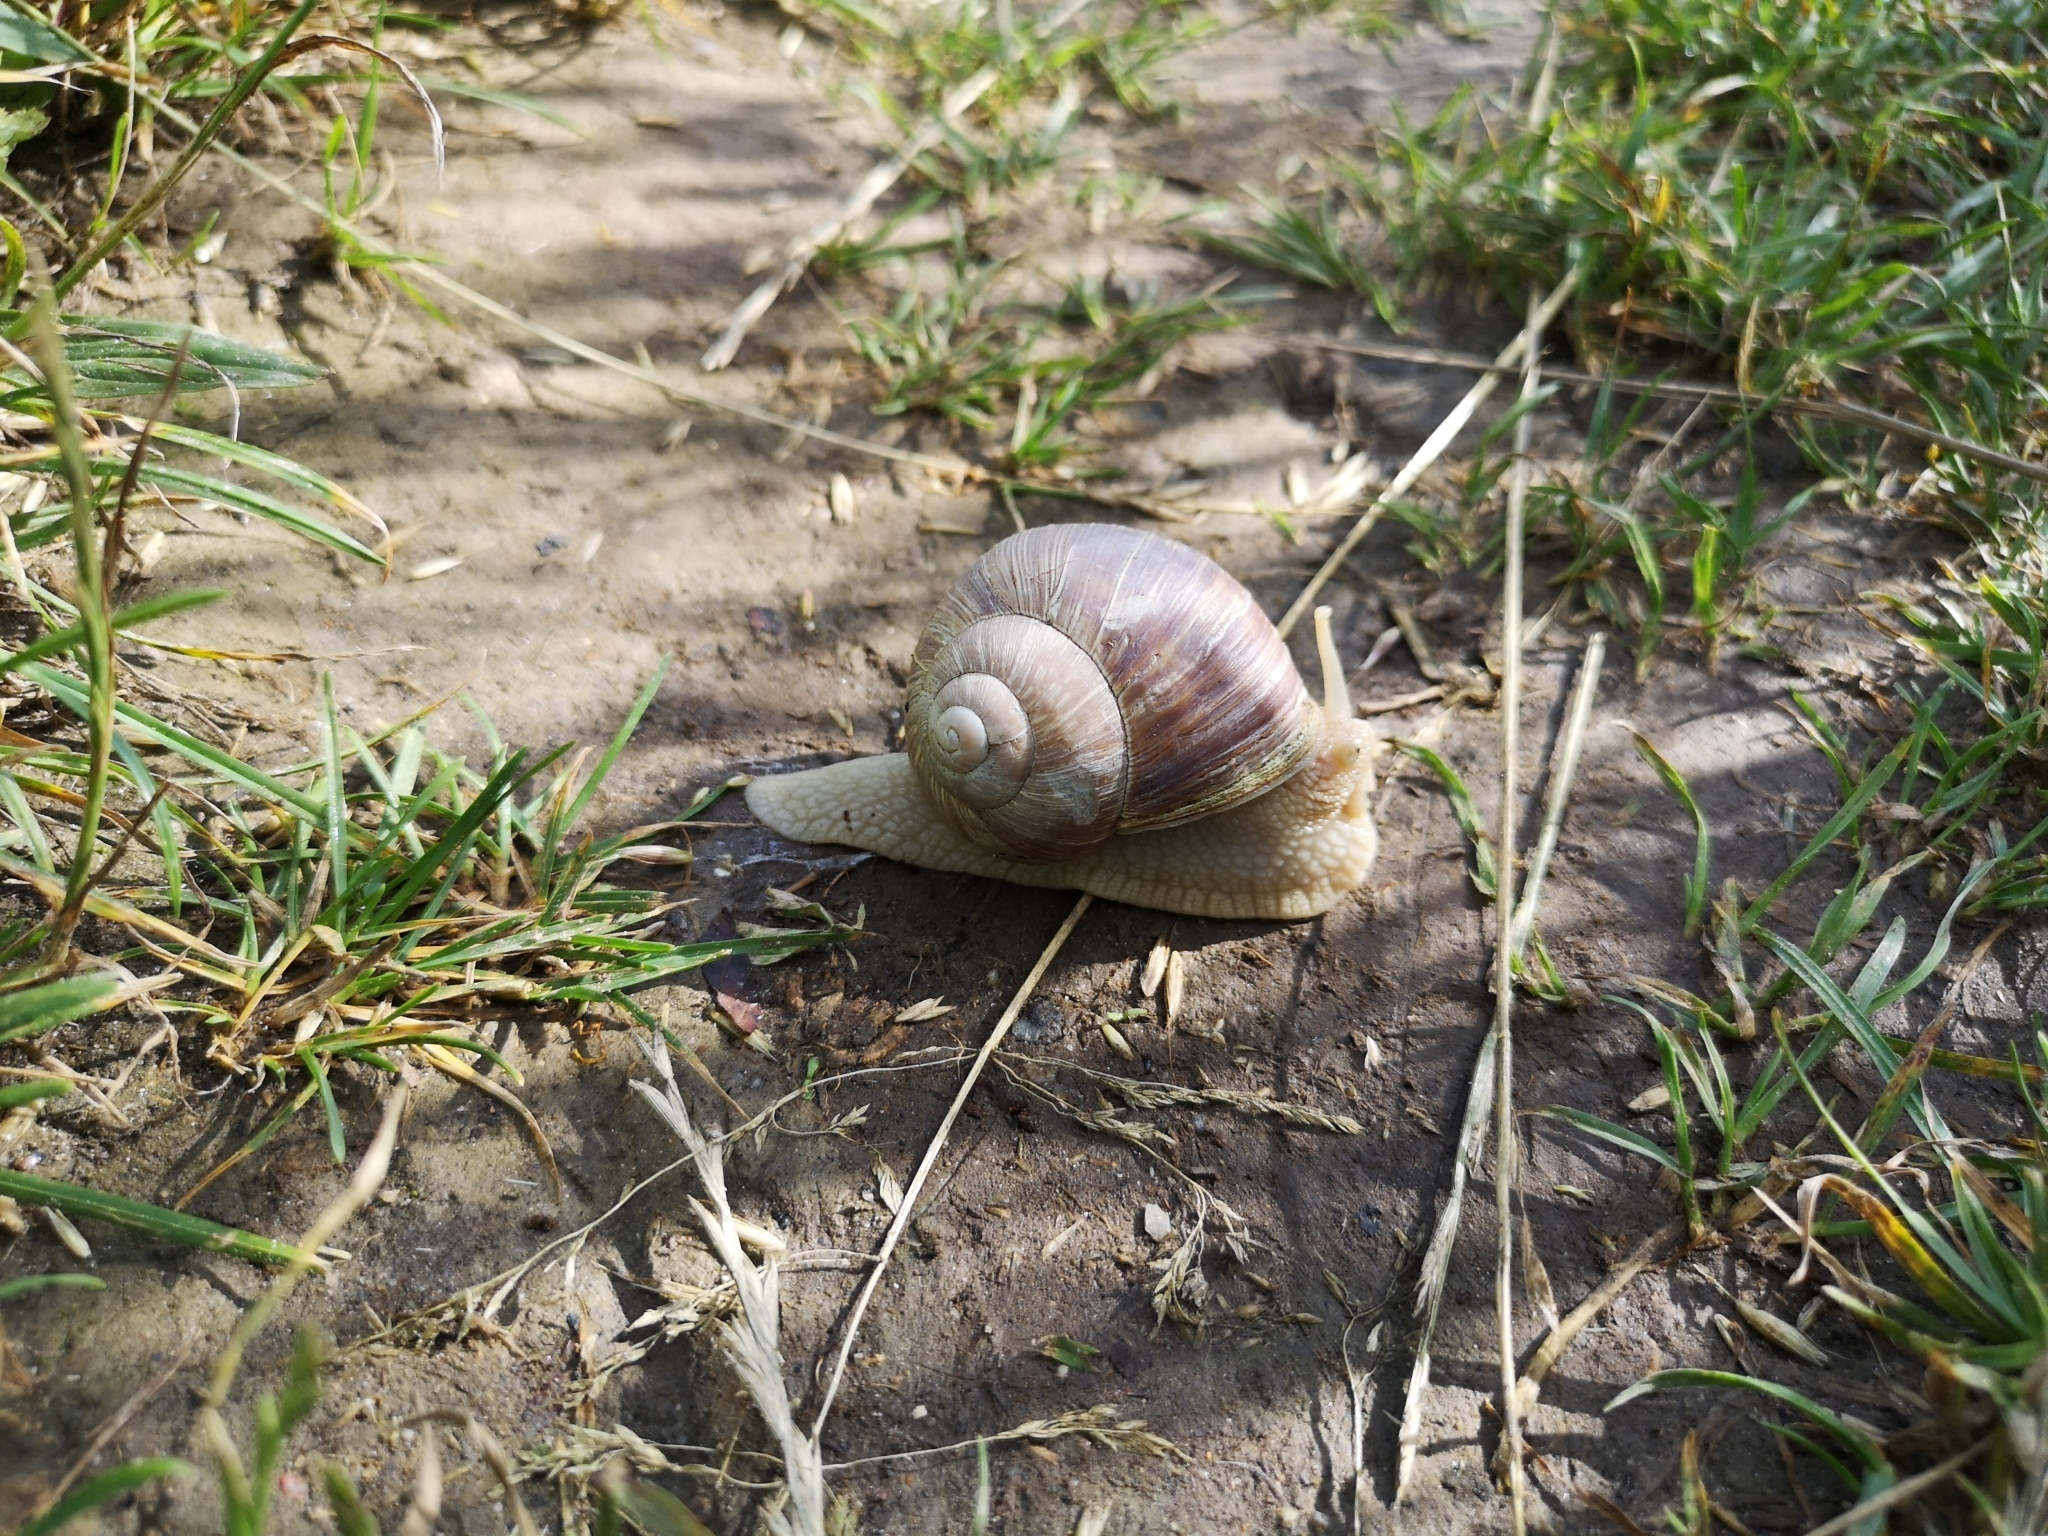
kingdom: Animalia
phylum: Mollusca
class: Gastropoda
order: Stylommatophora
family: Helicidae
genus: Helix
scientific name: Helix pomatia
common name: Roman snail
